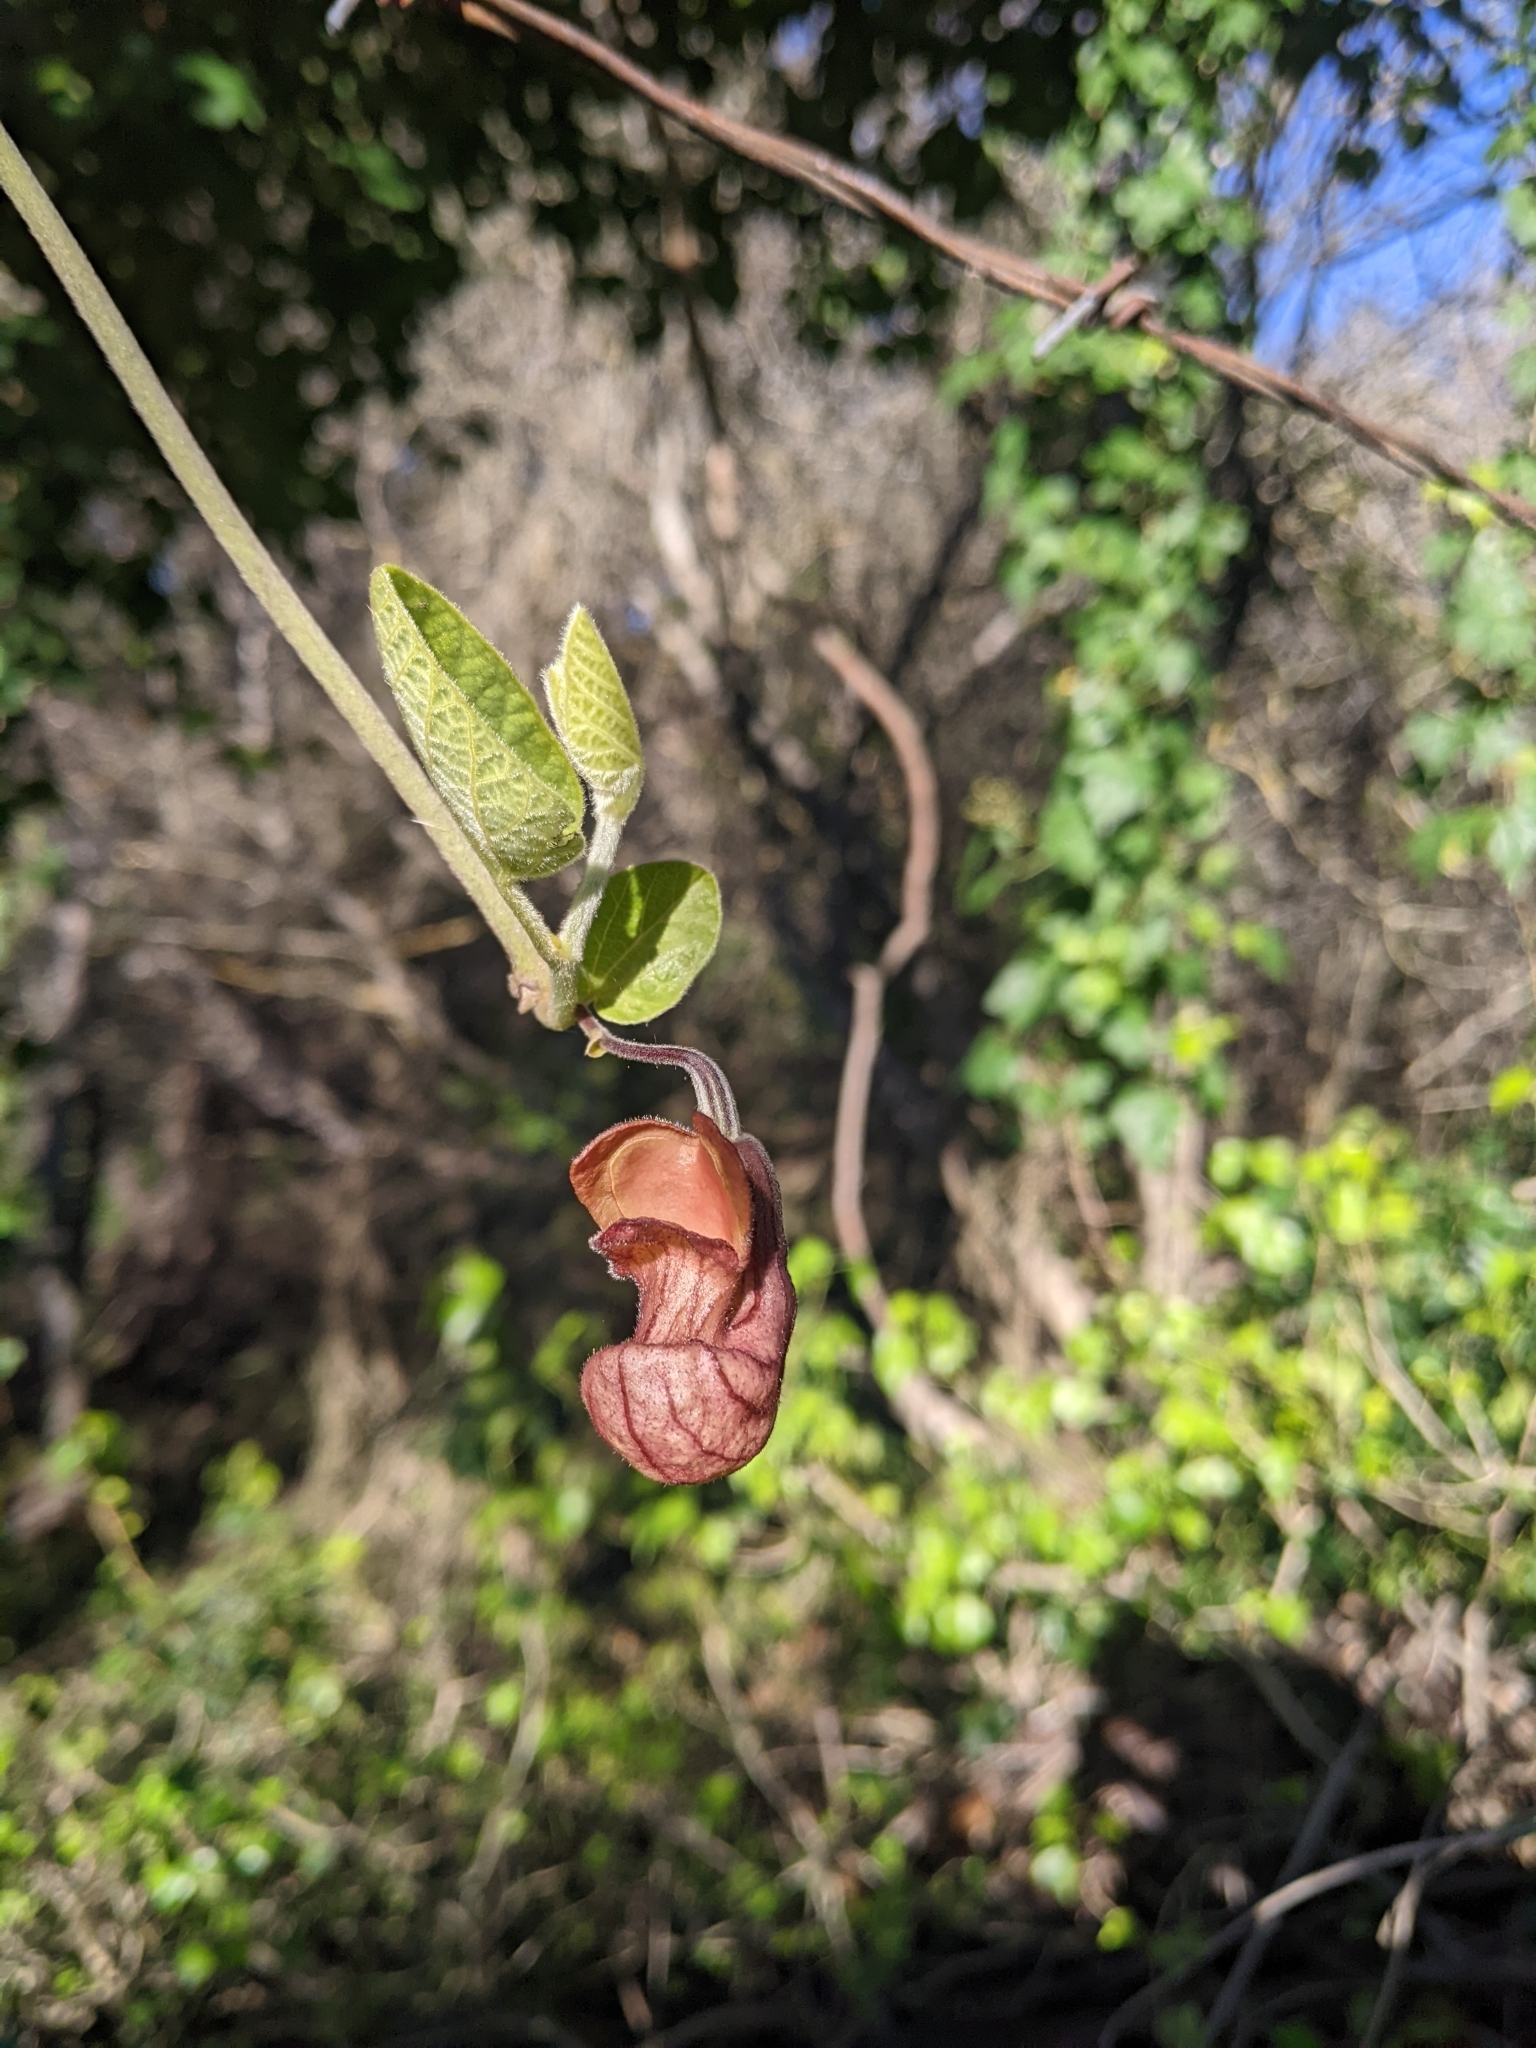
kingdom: Plantae
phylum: Tracheophyta
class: Magnoliopsida
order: Piperales
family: Aristolochiaceae
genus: Isotrema
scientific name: Isotrema californicum
